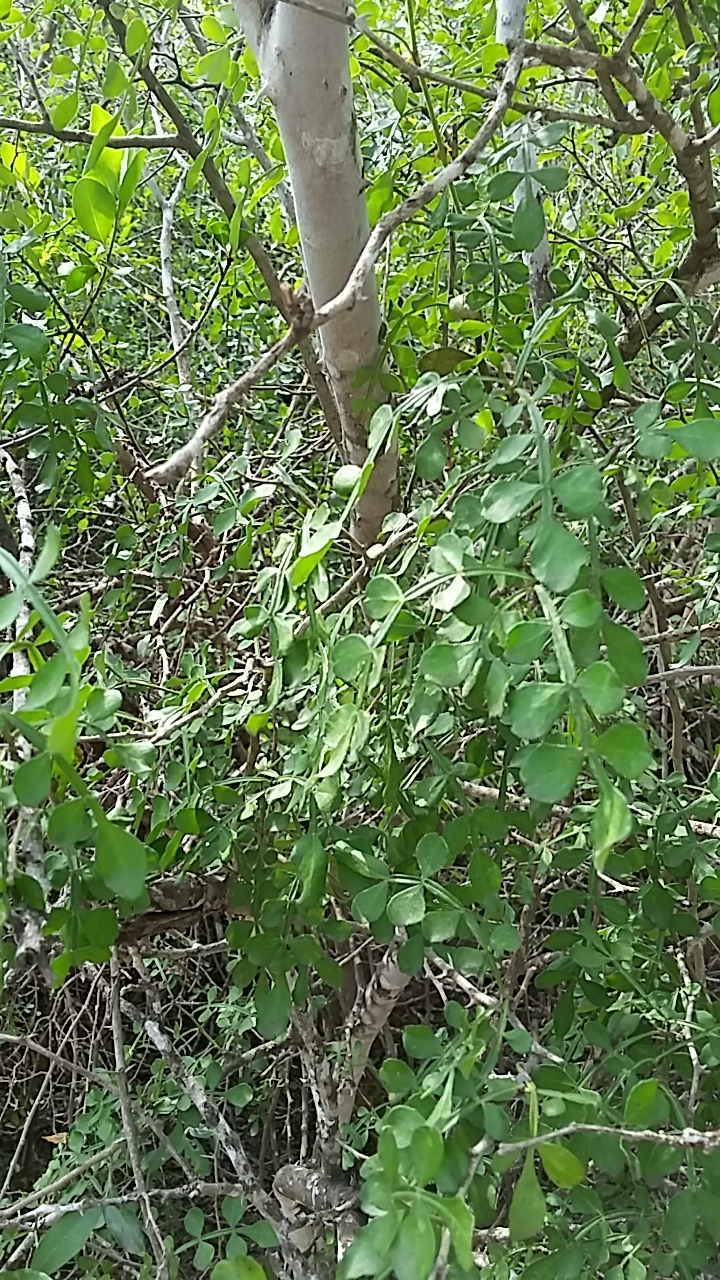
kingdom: Plantae
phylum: Tracheophyta
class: Magnoliopsida
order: Sapindales
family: Rutaceae
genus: Zanthoxylum
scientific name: Zanthoxylum fagara
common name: Lime prickly-ash
